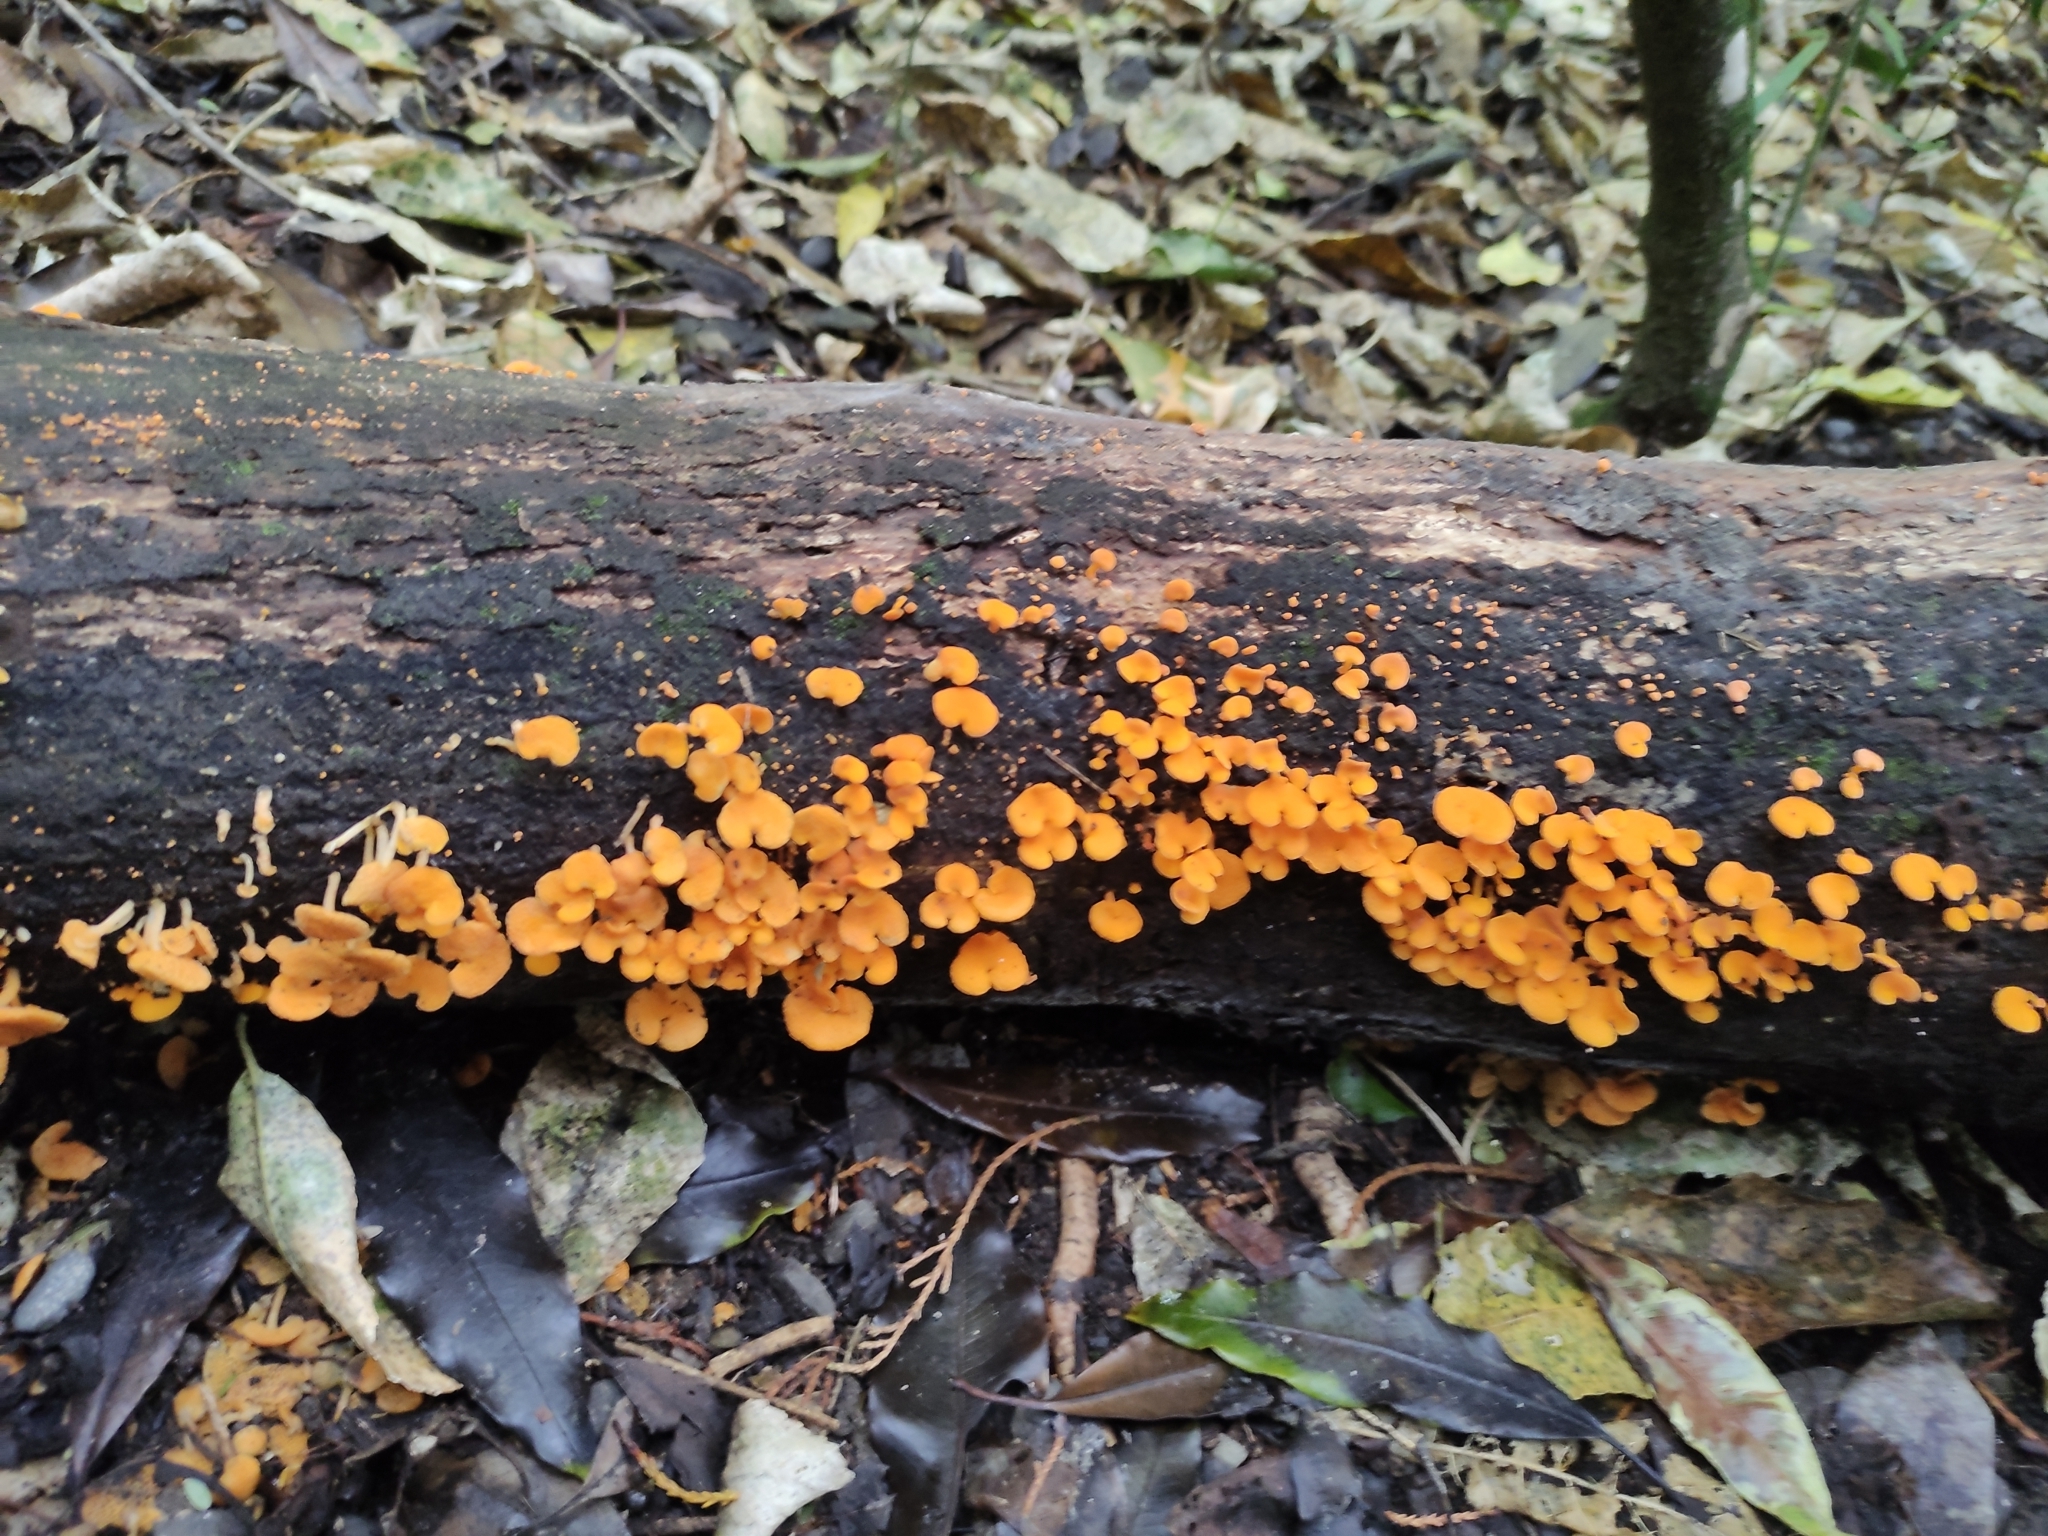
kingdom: Fungi
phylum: Basidiomycota
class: Agaricomycetes
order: Agaricales
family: Mycenaceae
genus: Favolaschia
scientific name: Favolaschia claudopus
